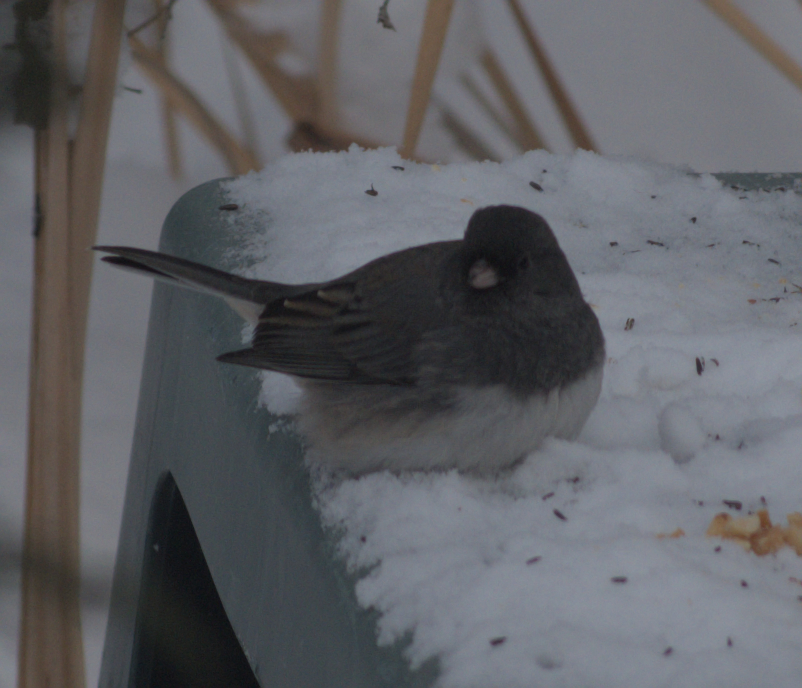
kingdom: Animalia
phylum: Chordata
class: Aves
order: Passeriformes
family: Passerellidae
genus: Junco
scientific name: Junco hyemalis
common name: Dark-eyed junco
